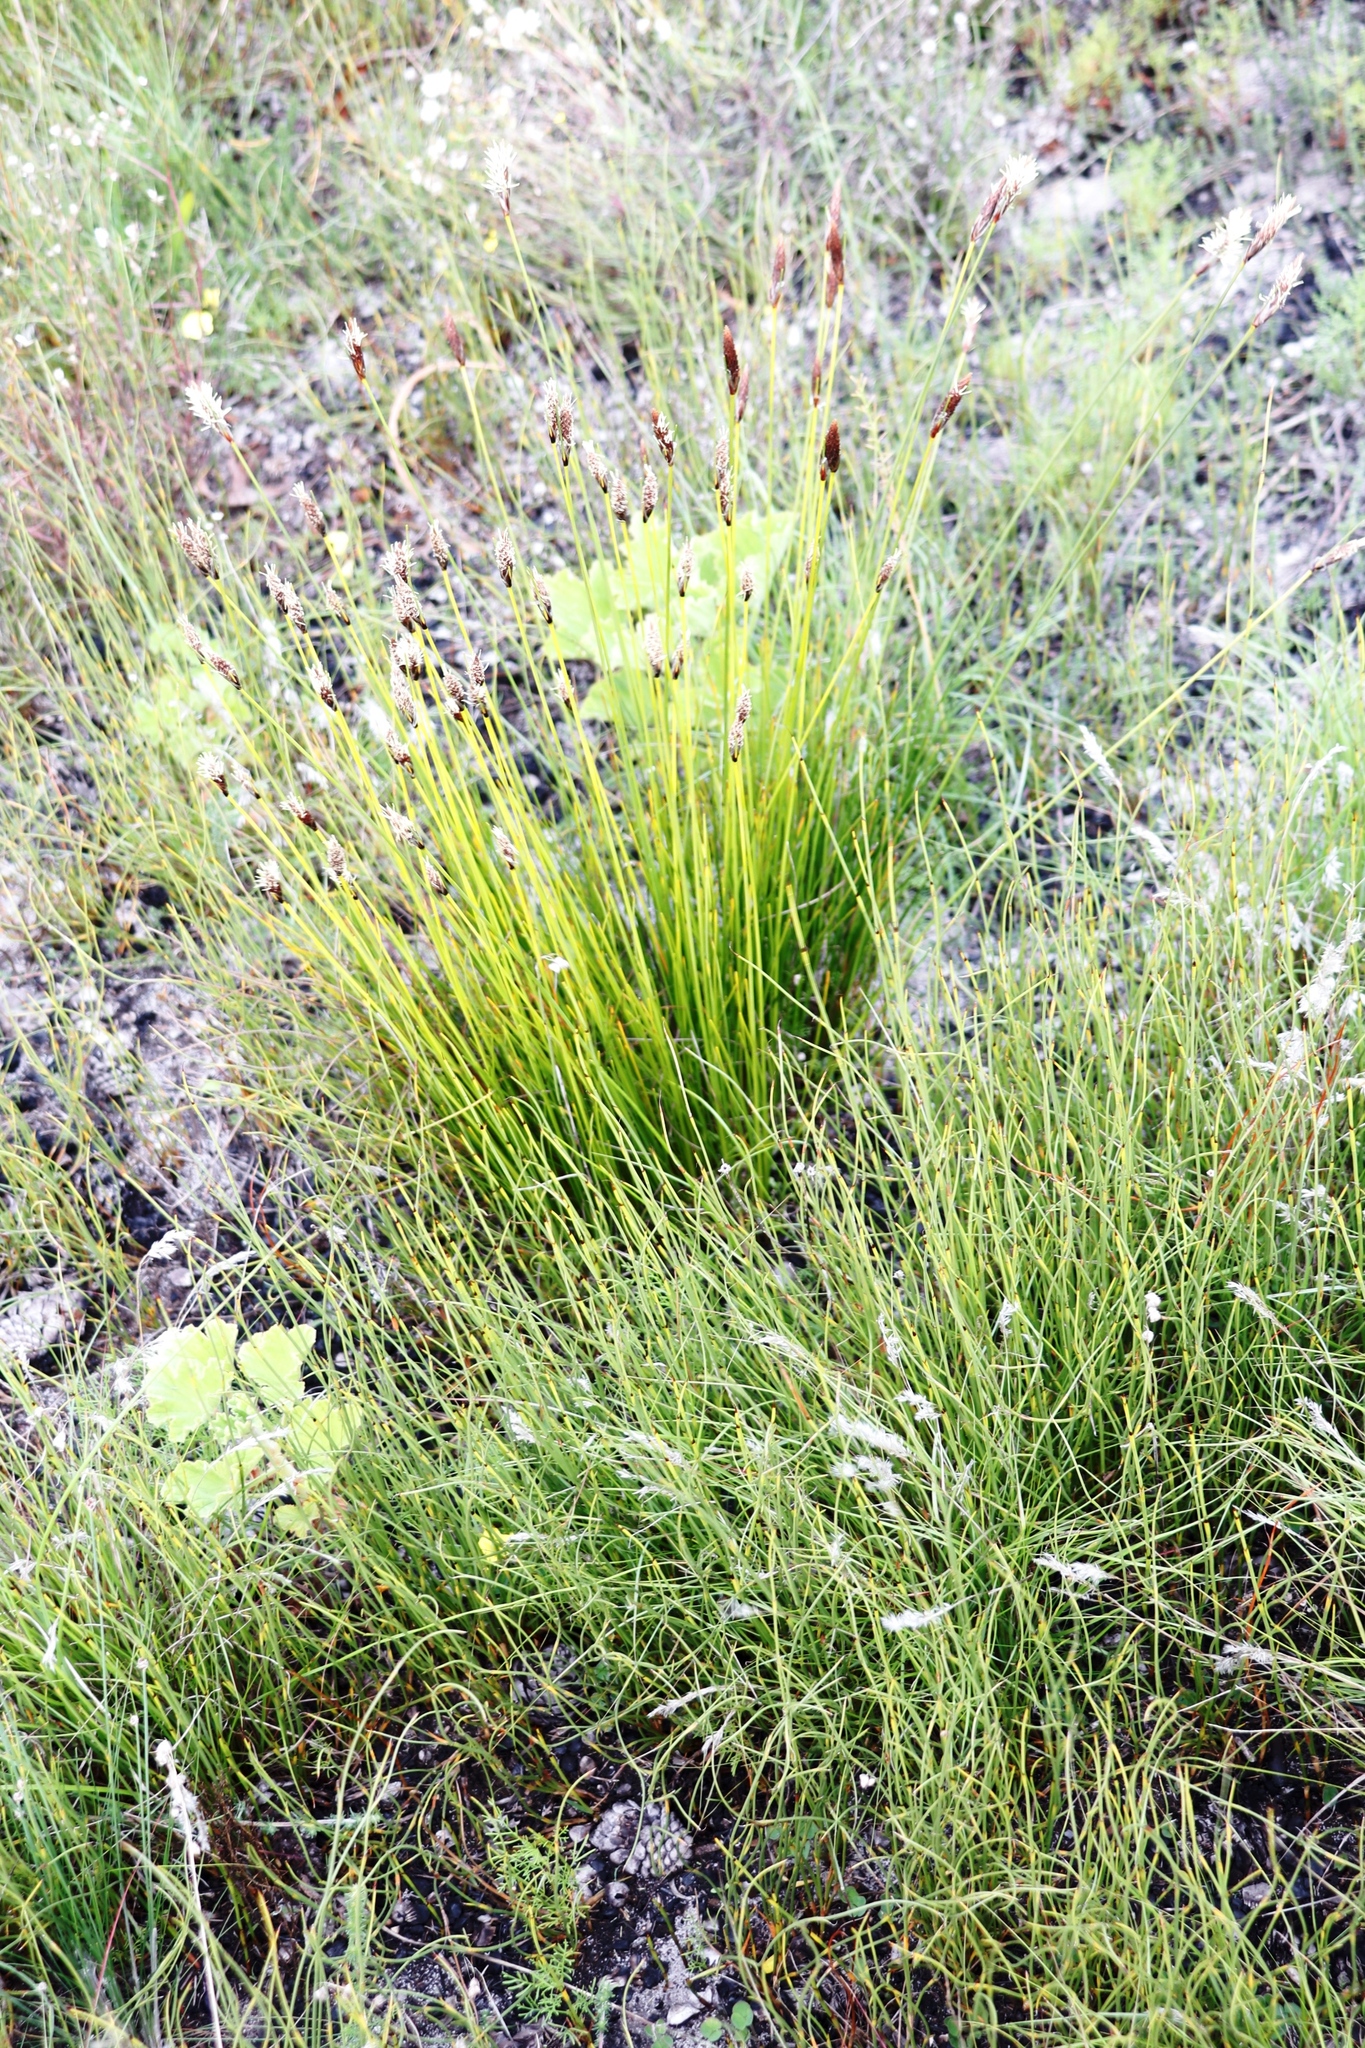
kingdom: Plantae
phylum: Tracheophyta
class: Liliopsida
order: Poales
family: Cyperaceae
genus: Ficinia
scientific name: Ficinia deusta
